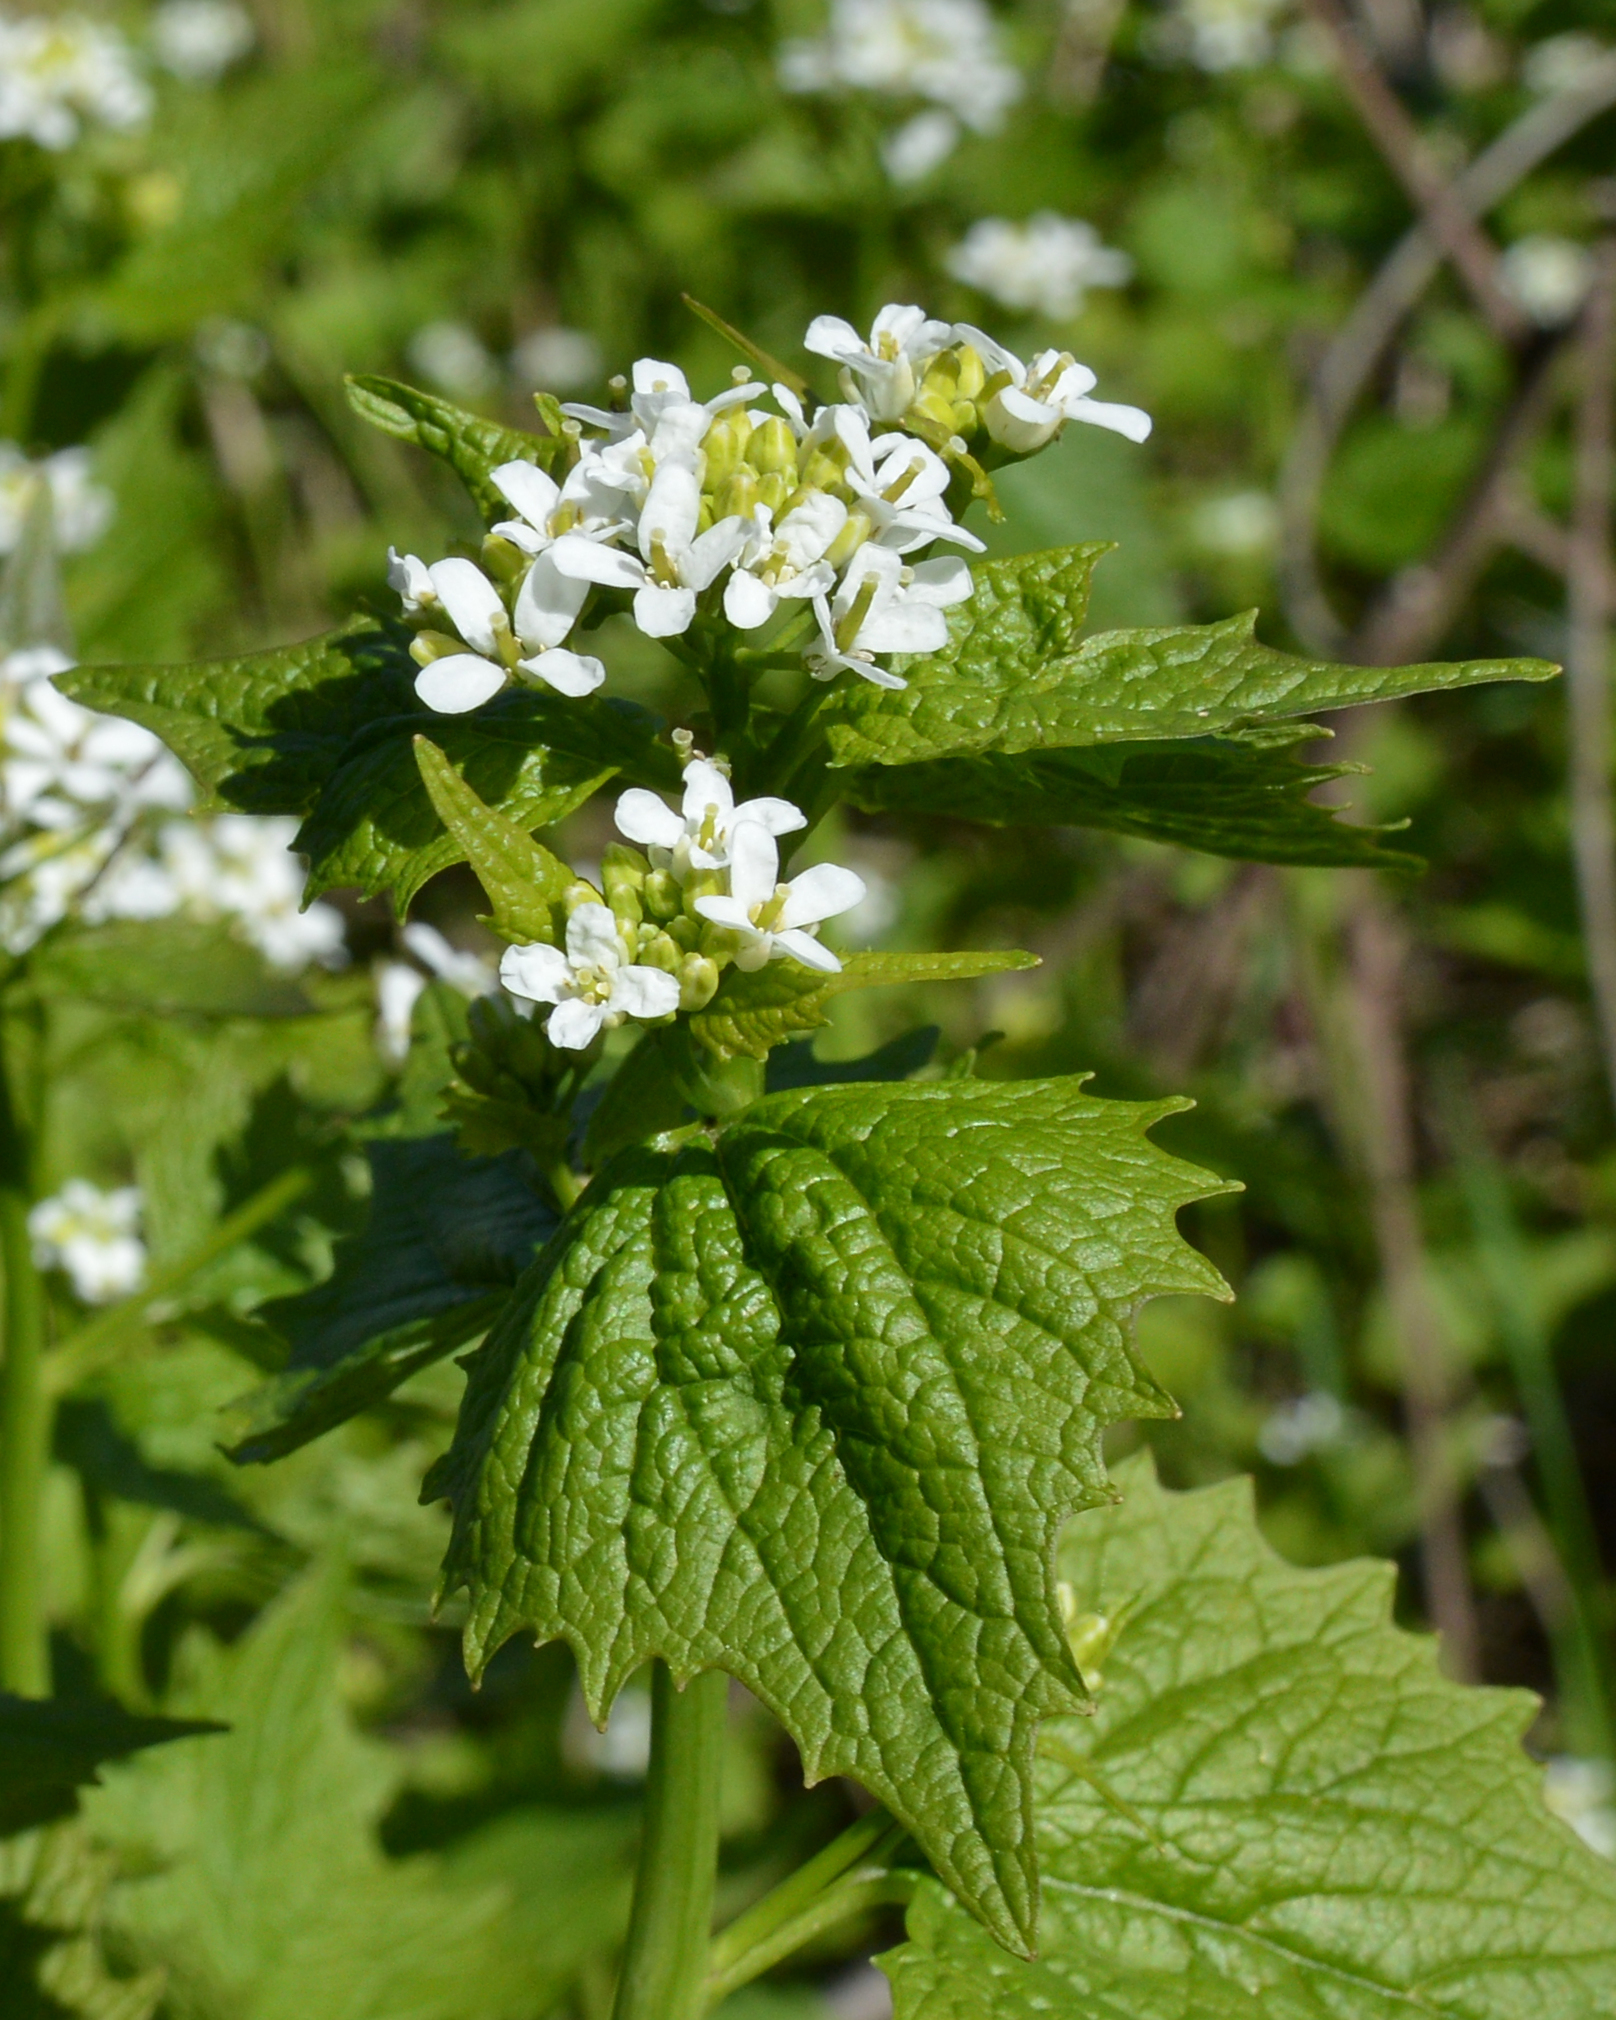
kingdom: Plantae
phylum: Tracheophyta
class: Magnoliopsida
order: Brassicales
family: Brassicaceae
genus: Alliaria
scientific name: Alliaria petiolata
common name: Garlic mustard
